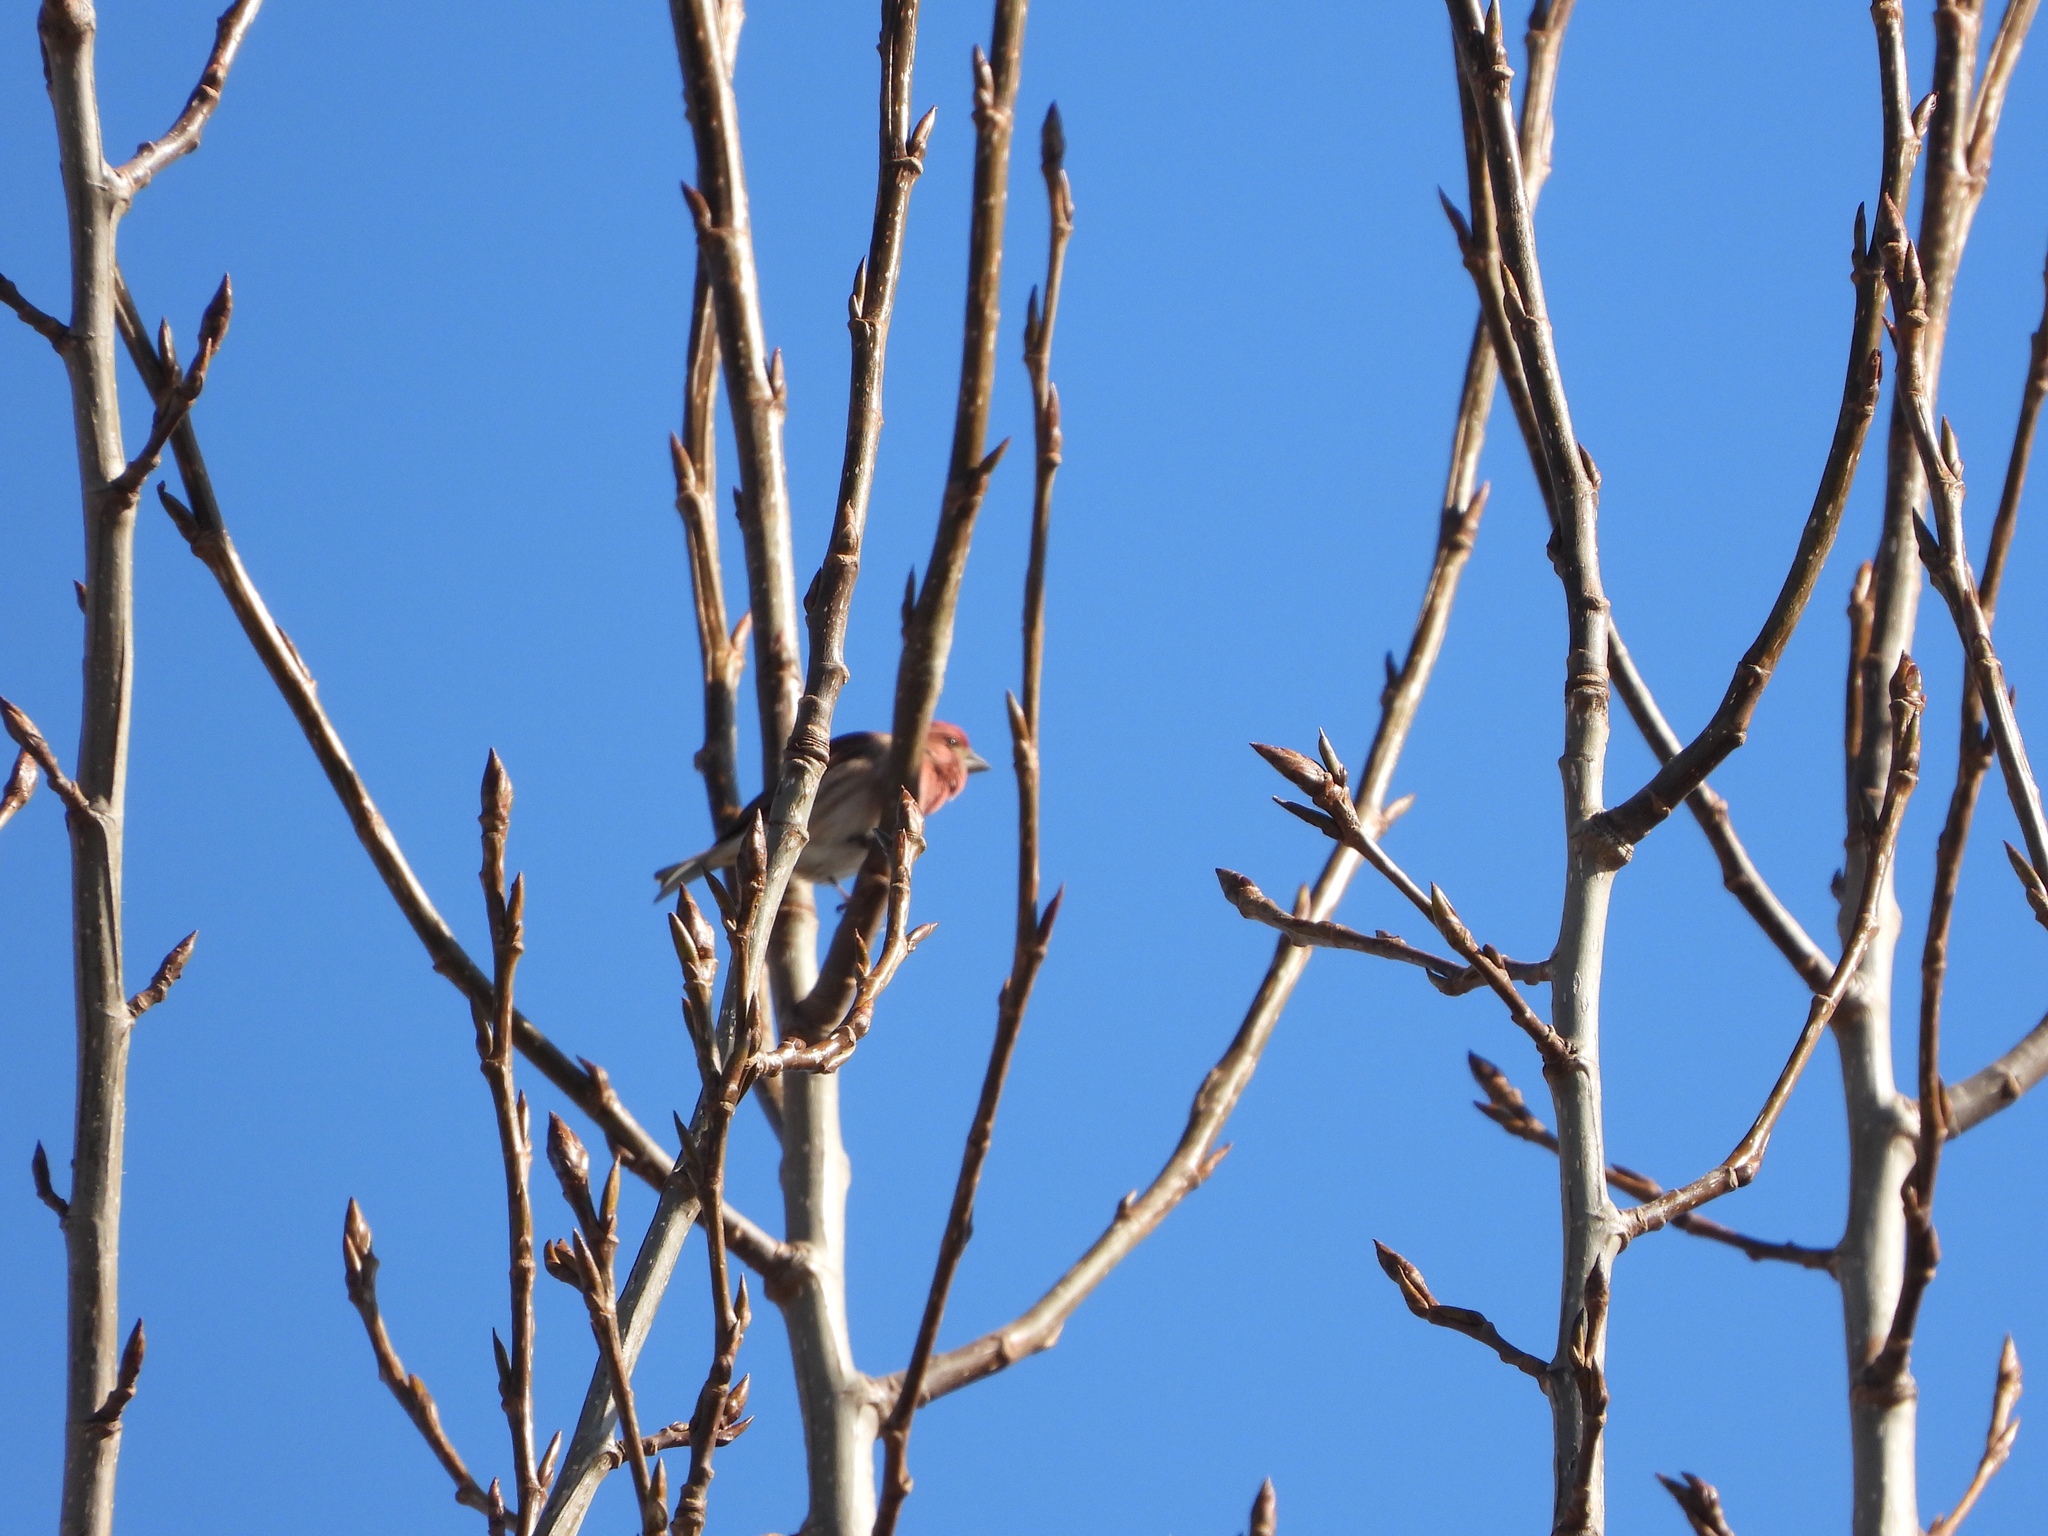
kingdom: Animalia
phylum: Chordata
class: Aves
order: Passeriformes
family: Fringillidae
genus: Haemorhous
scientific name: Haemorhous purpureus
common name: Purple finch
